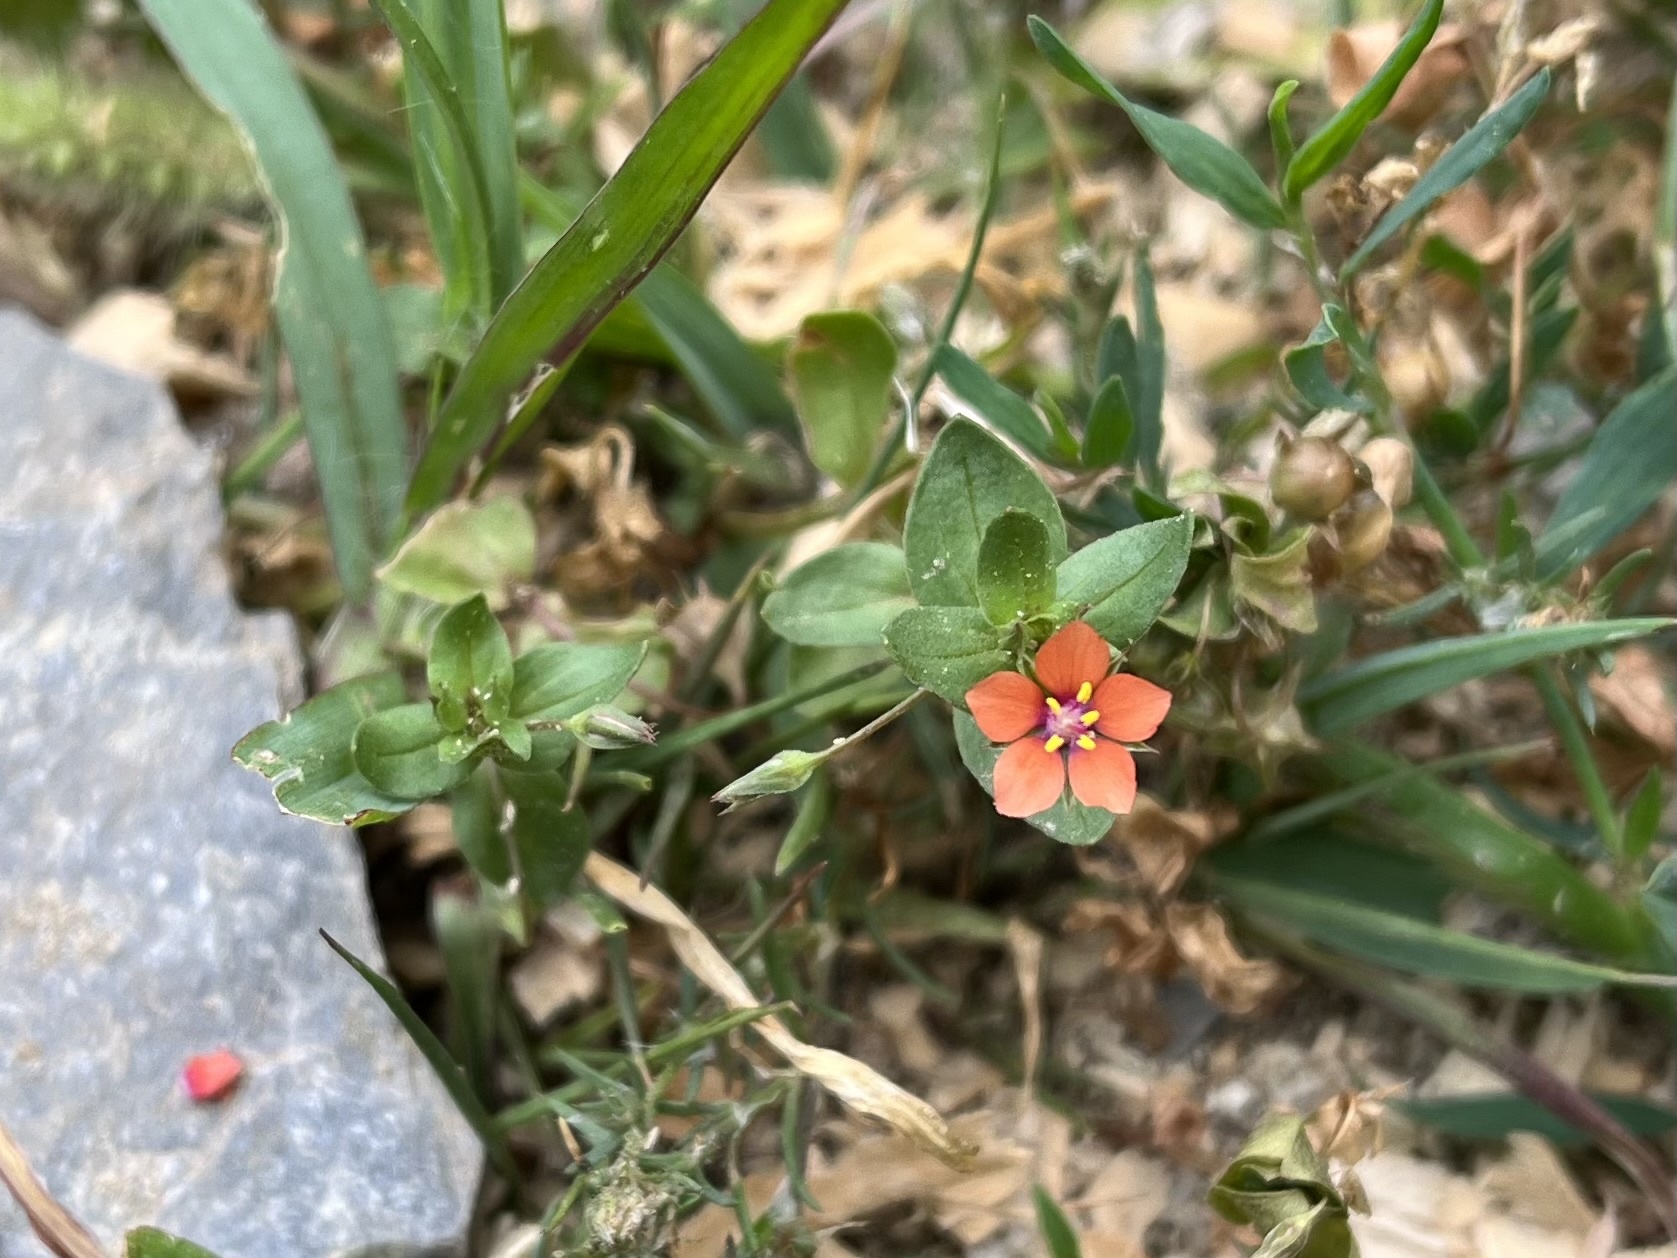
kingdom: Plantae
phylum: Tracheophyta
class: Magnoliopsida
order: Ericales
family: Primulaceae
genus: Lysimachia
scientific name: Lysimachia arvensis
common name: Scarlet pimpernel
